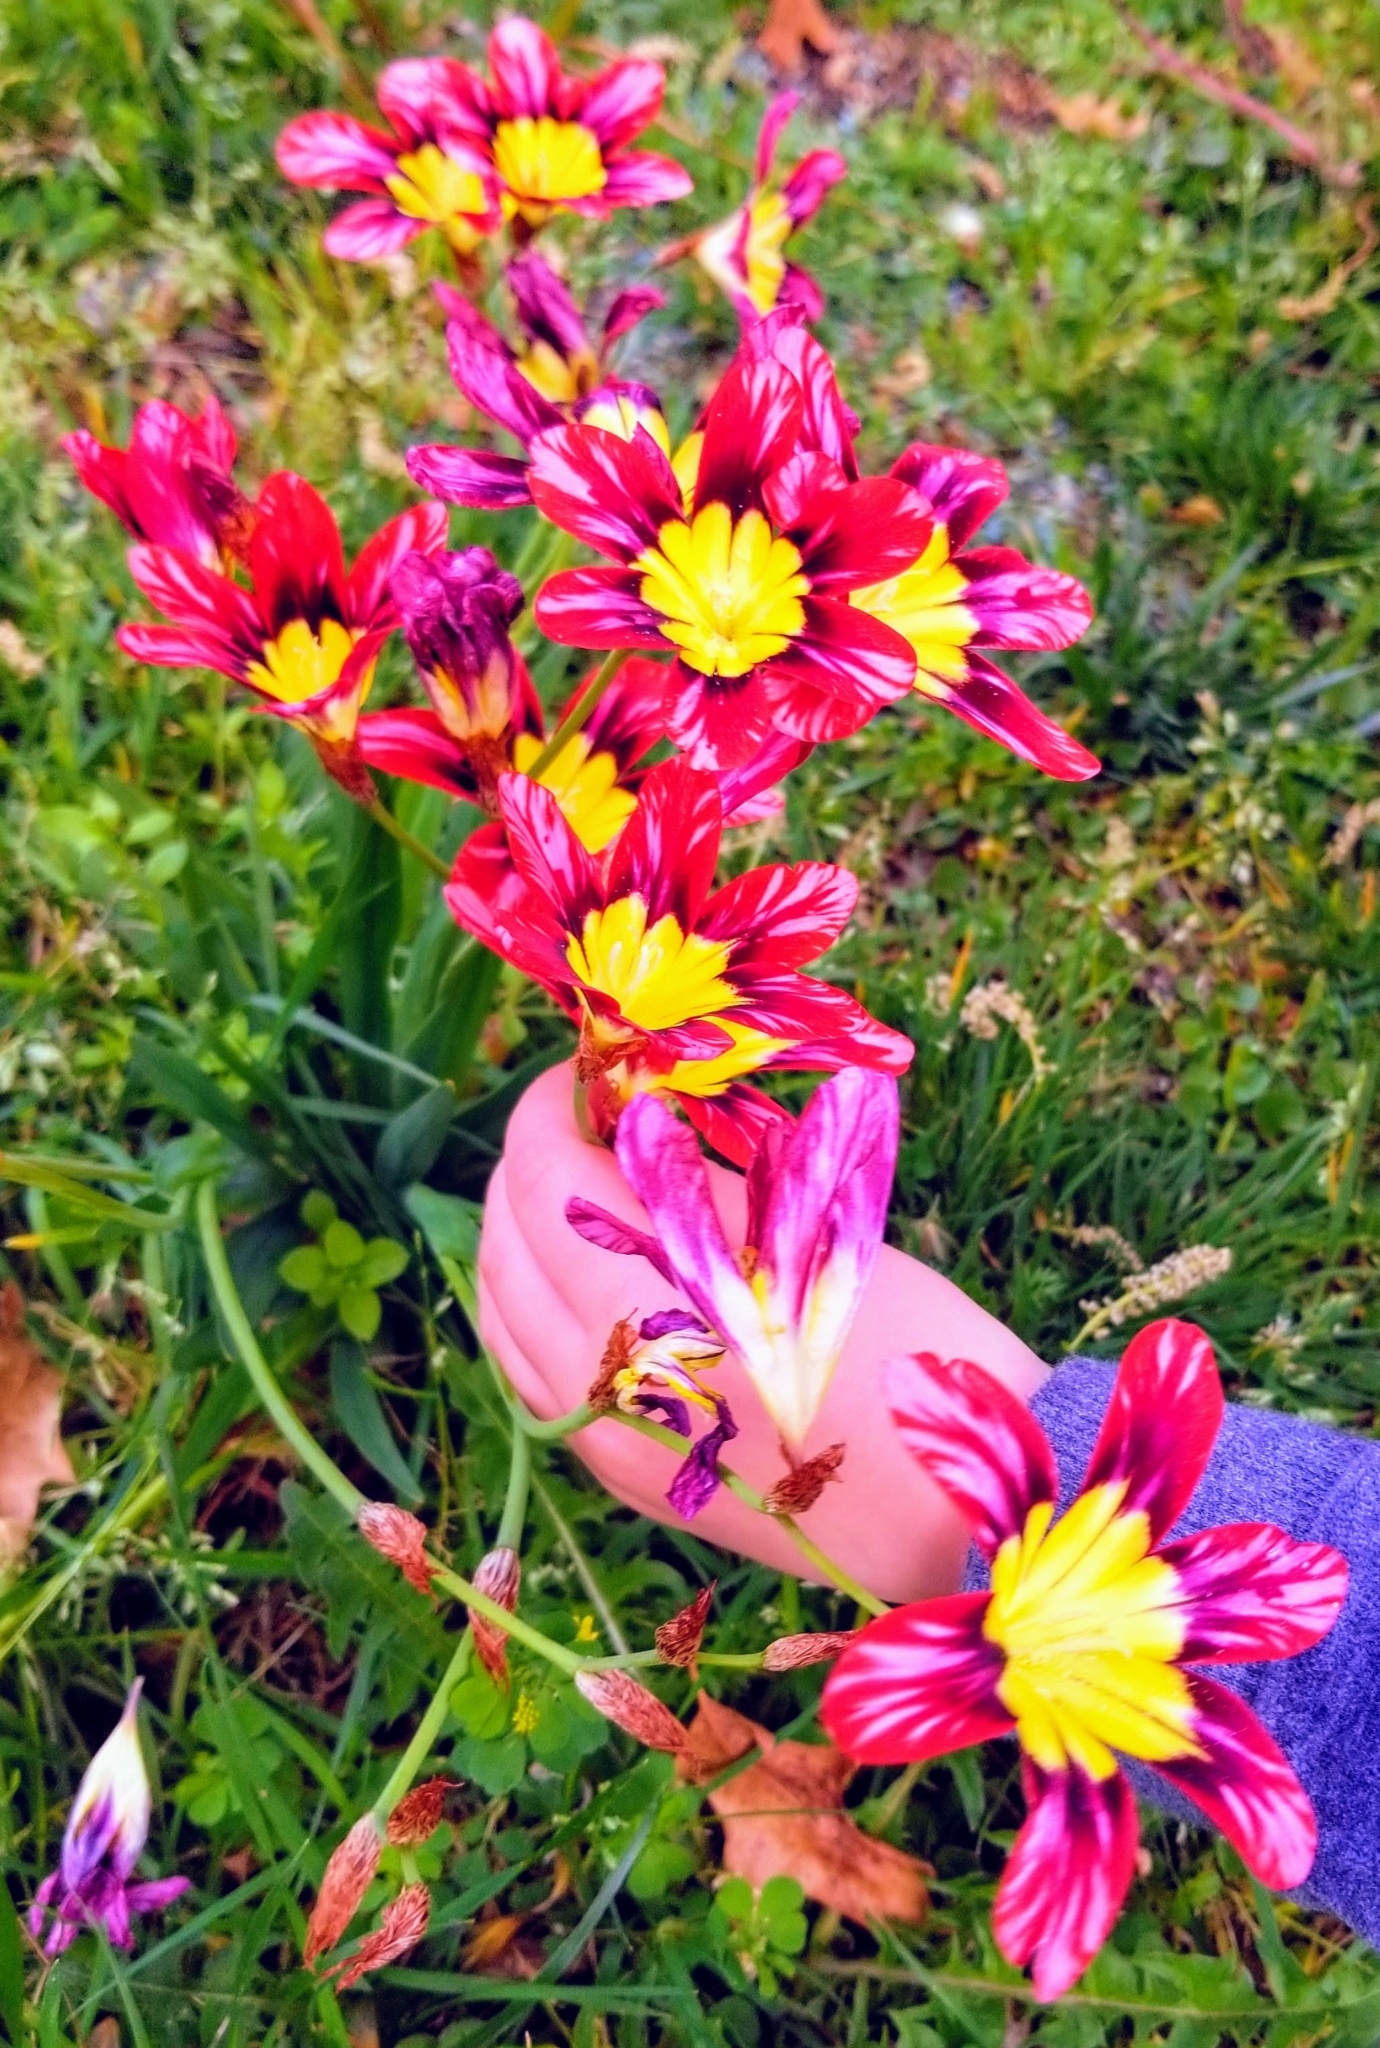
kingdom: Plantae
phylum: Tracheophyta
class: Liliopsida
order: Asparagales
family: Iridaceae
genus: Sparaxis
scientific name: Sparaxis tricolor
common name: Wandflower
